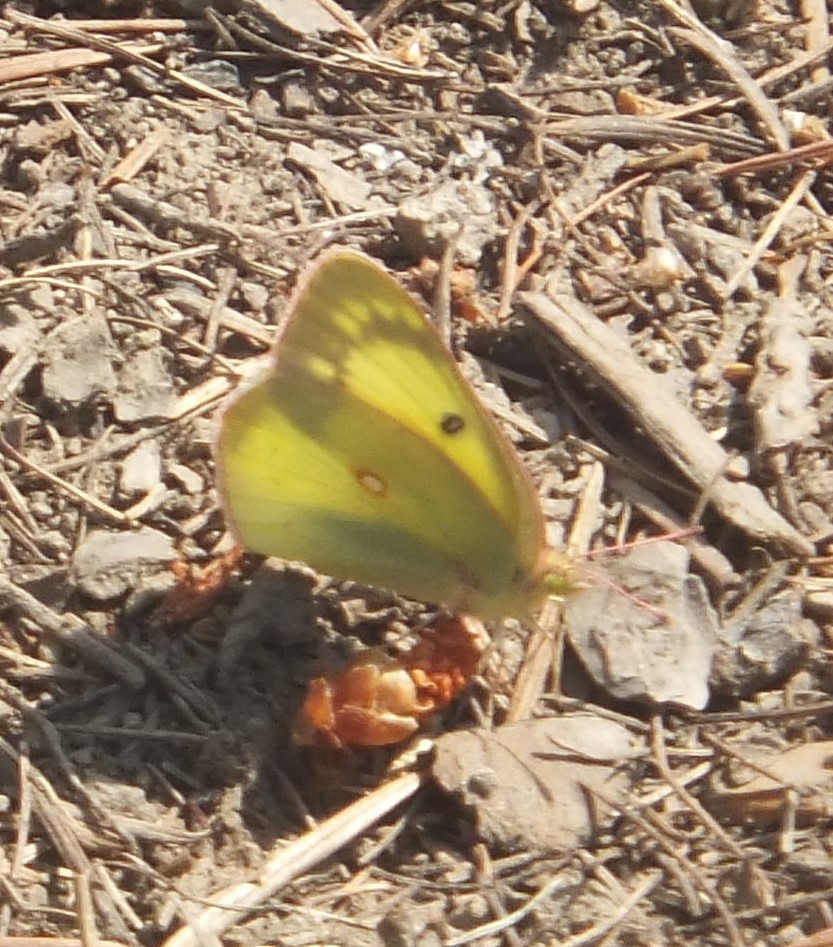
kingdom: Animalia
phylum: Arthropoda
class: Insecta
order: Lepidoptera
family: Pieridae
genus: Colias
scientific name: Colias philodice
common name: Clouded sulphur
